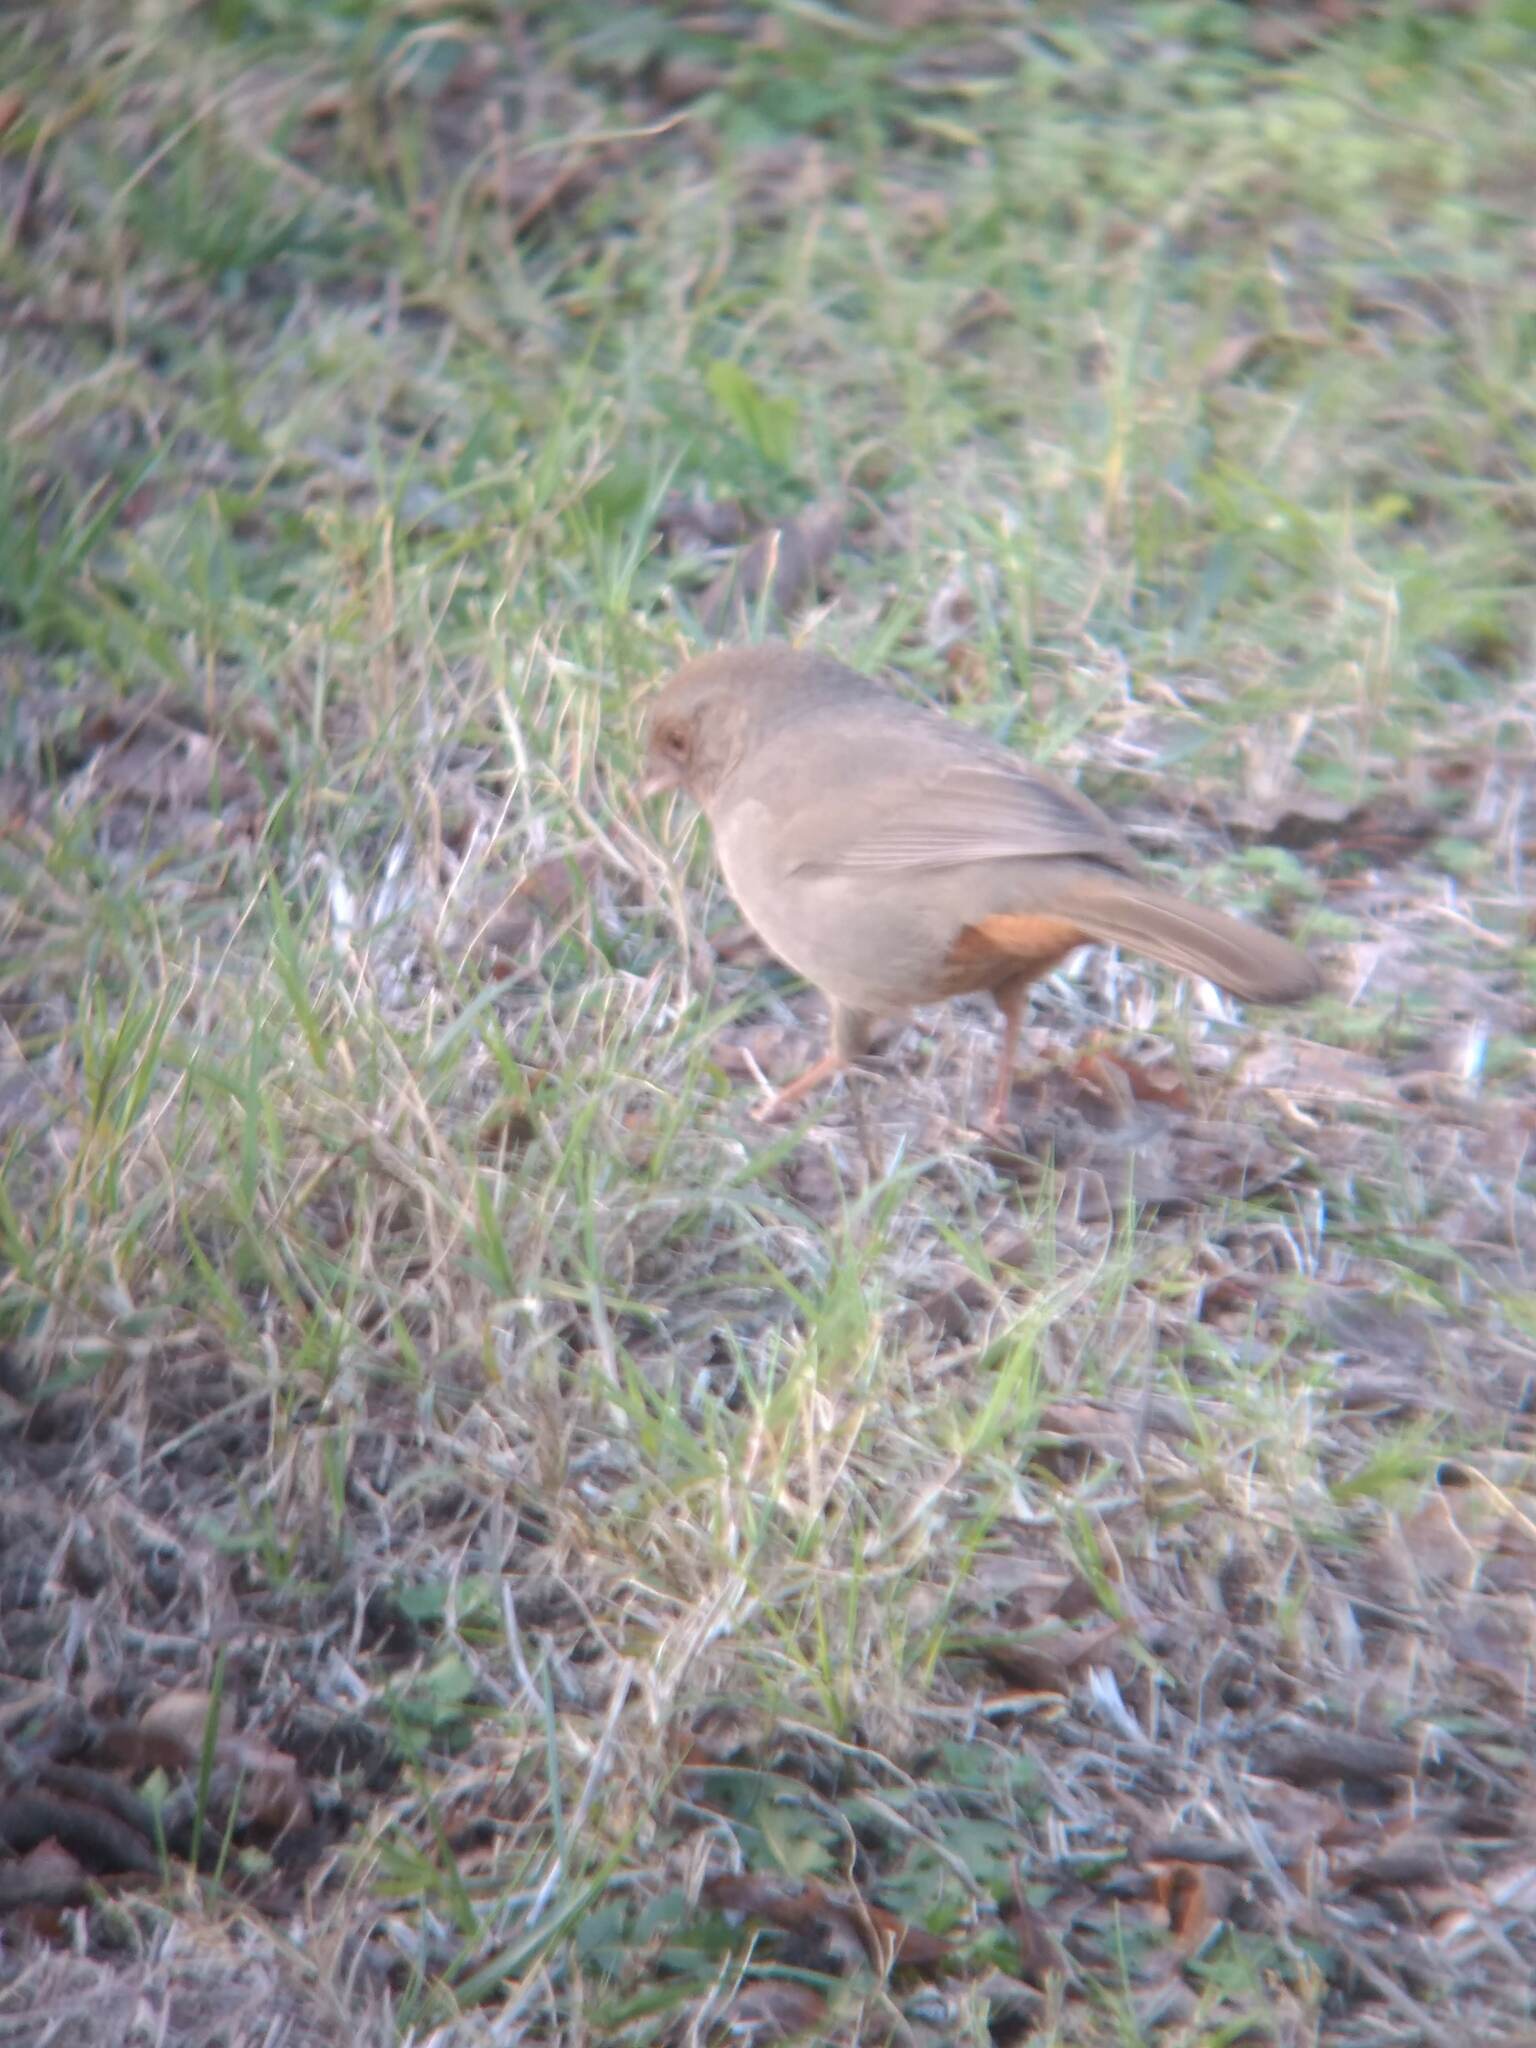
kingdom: Animalia
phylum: Chordata
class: Aves
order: Passeriformes
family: Passerellidae
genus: Melozone
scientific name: Melozone crissalis
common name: California towhee
